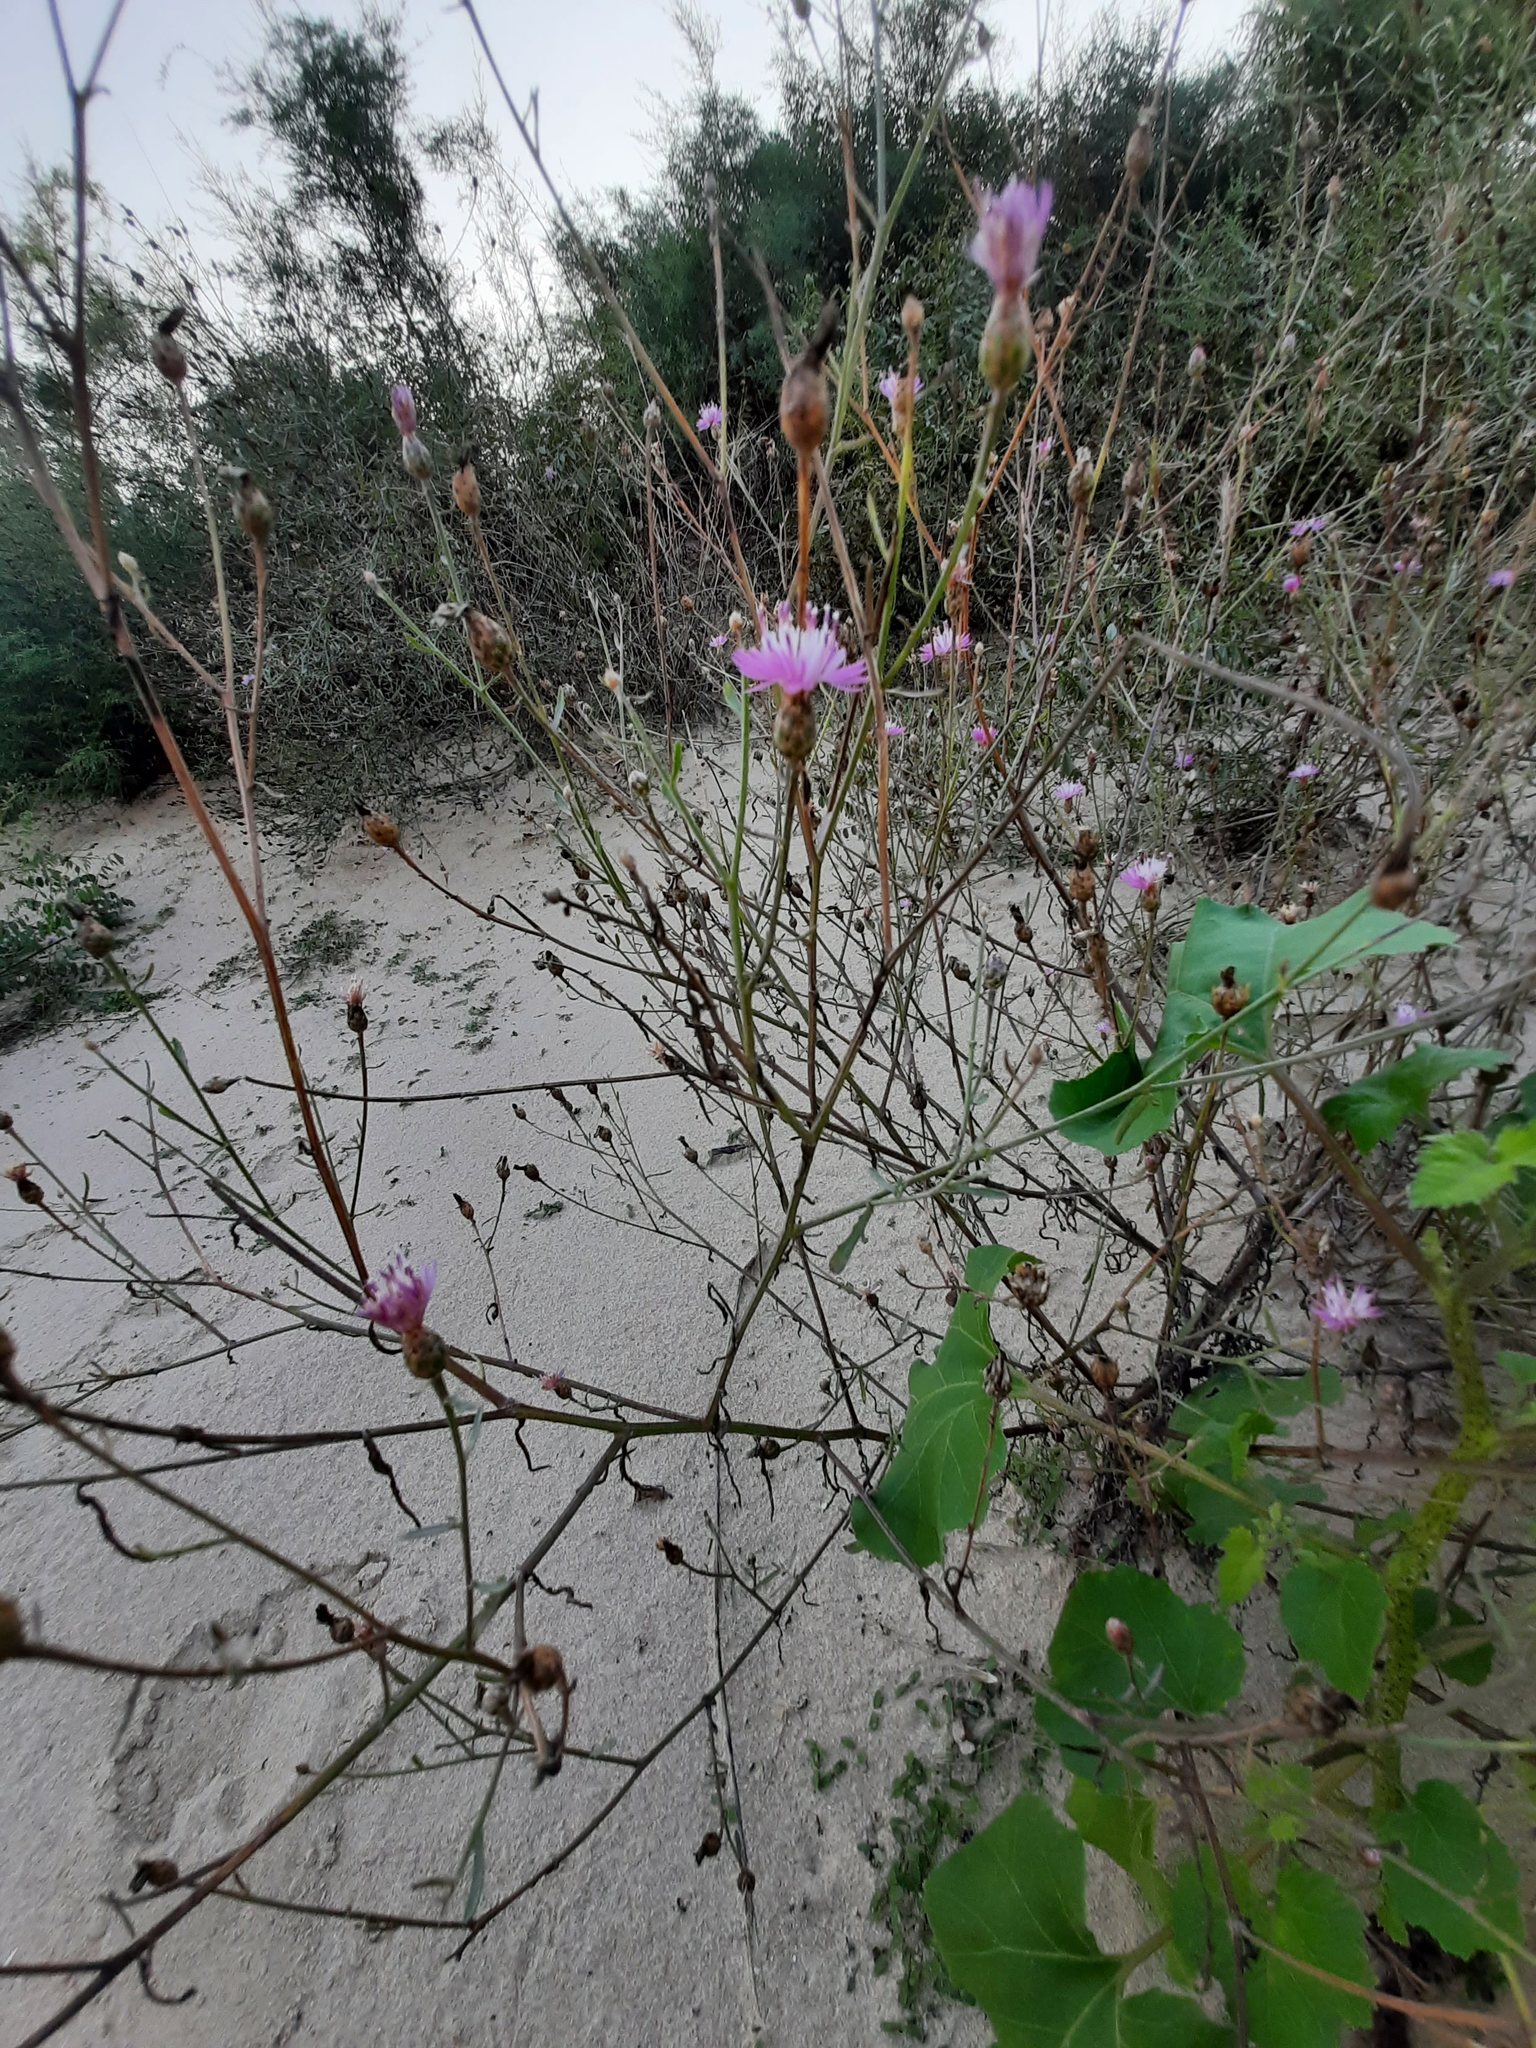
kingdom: Plantae
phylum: Tracheophyta
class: Magnoliopsida
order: Asterales
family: Asteraceae
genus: Centaurea
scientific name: Centaurea stoebe
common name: Spotted knapweed
